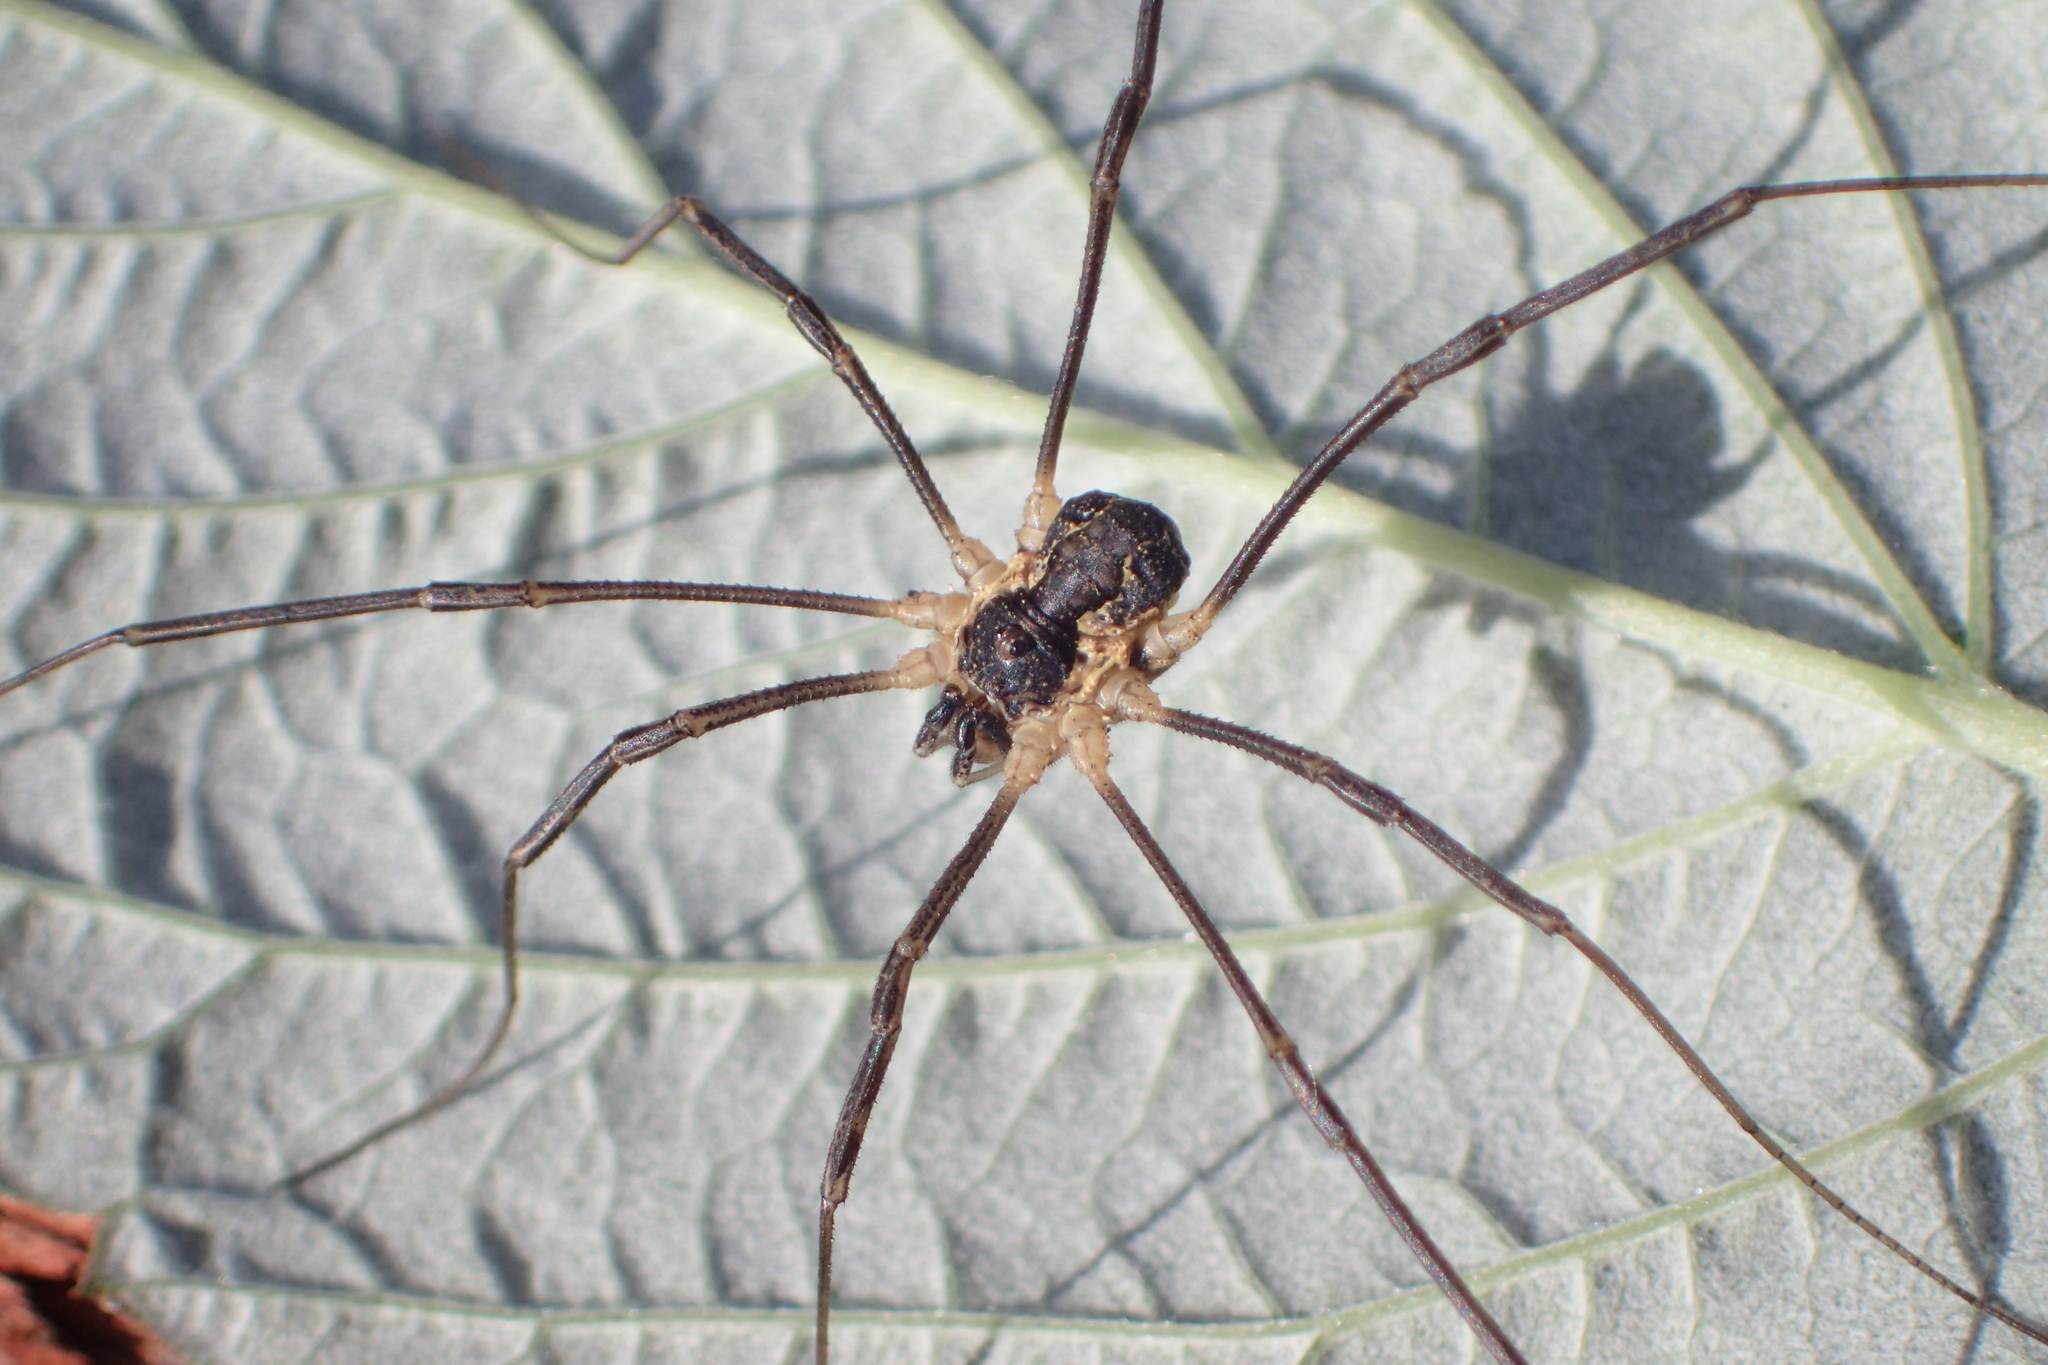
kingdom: Animalia
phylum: Arthropoda
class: Arachnida
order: Opiliones
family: Phalangiidae
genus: Mitopus
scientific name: Mitopus morio
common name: Saddleback harvestman
